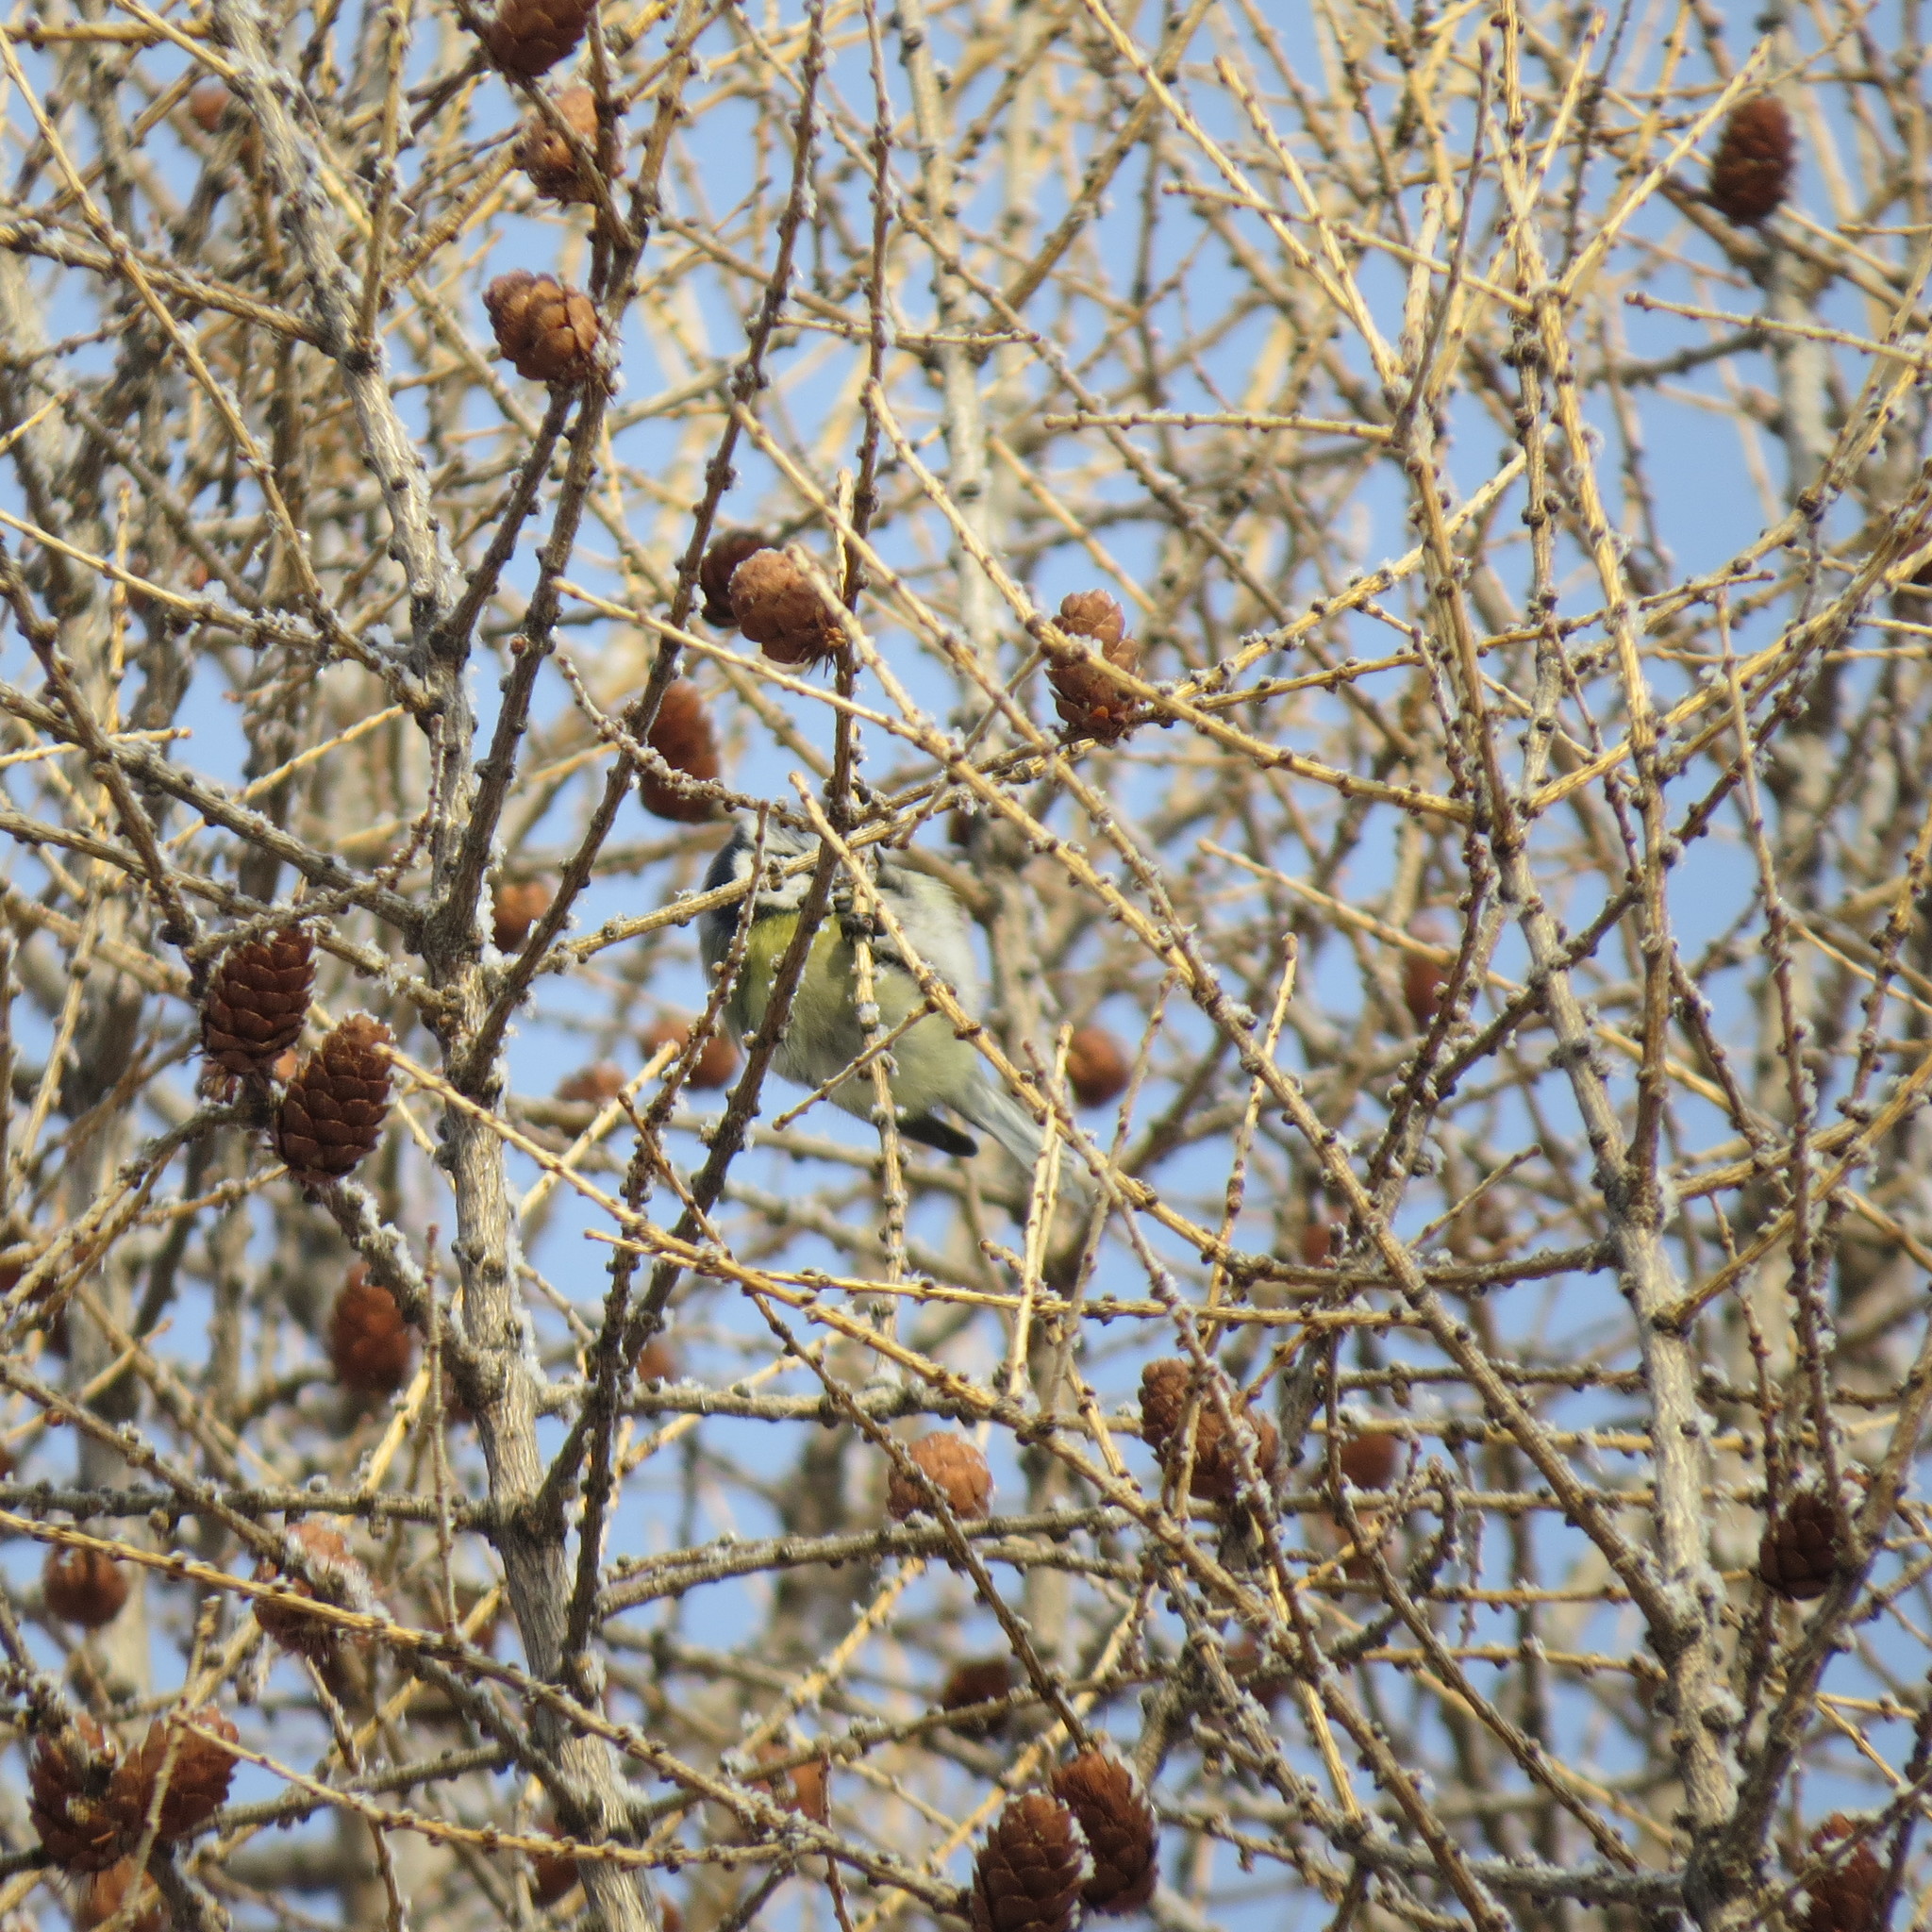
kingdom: Animalia
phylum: Chordata
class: Aves
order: Passeriformes
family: Paridae
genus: Cyanistes
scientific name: Cyanistes caeruleus
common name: Eurasian blue tit
